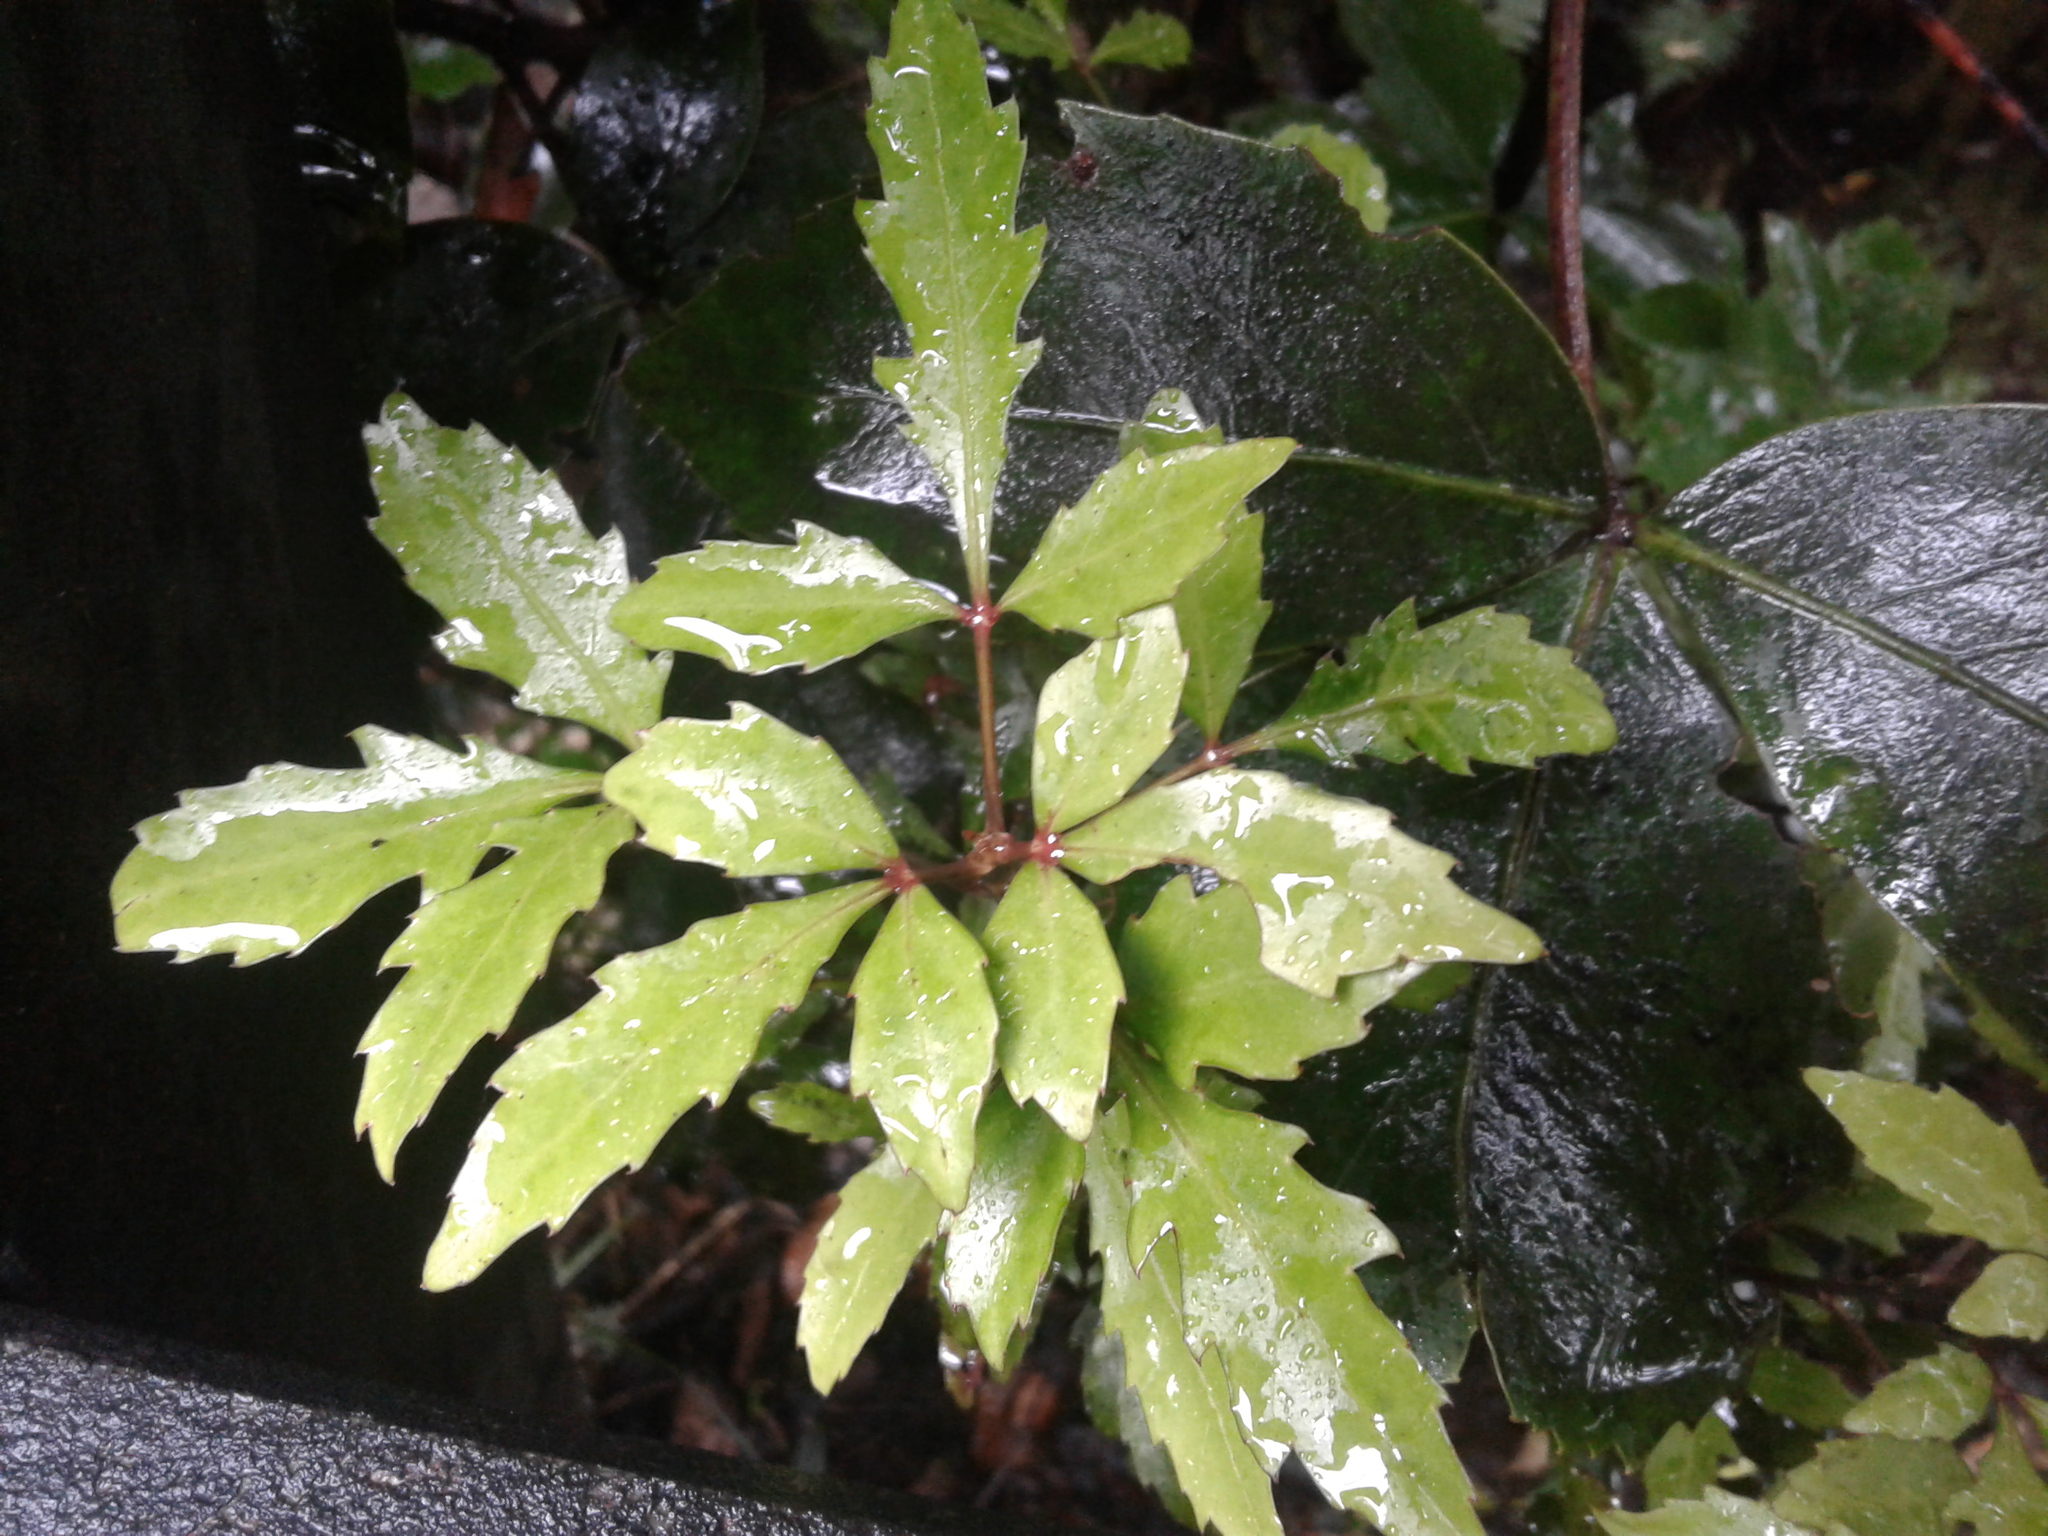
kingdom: Plantae
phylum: Tracheophyta
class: Magnoliopsida
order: Apiales
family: Araliaceae
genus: Raukaua
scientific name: Raukaua simplex
